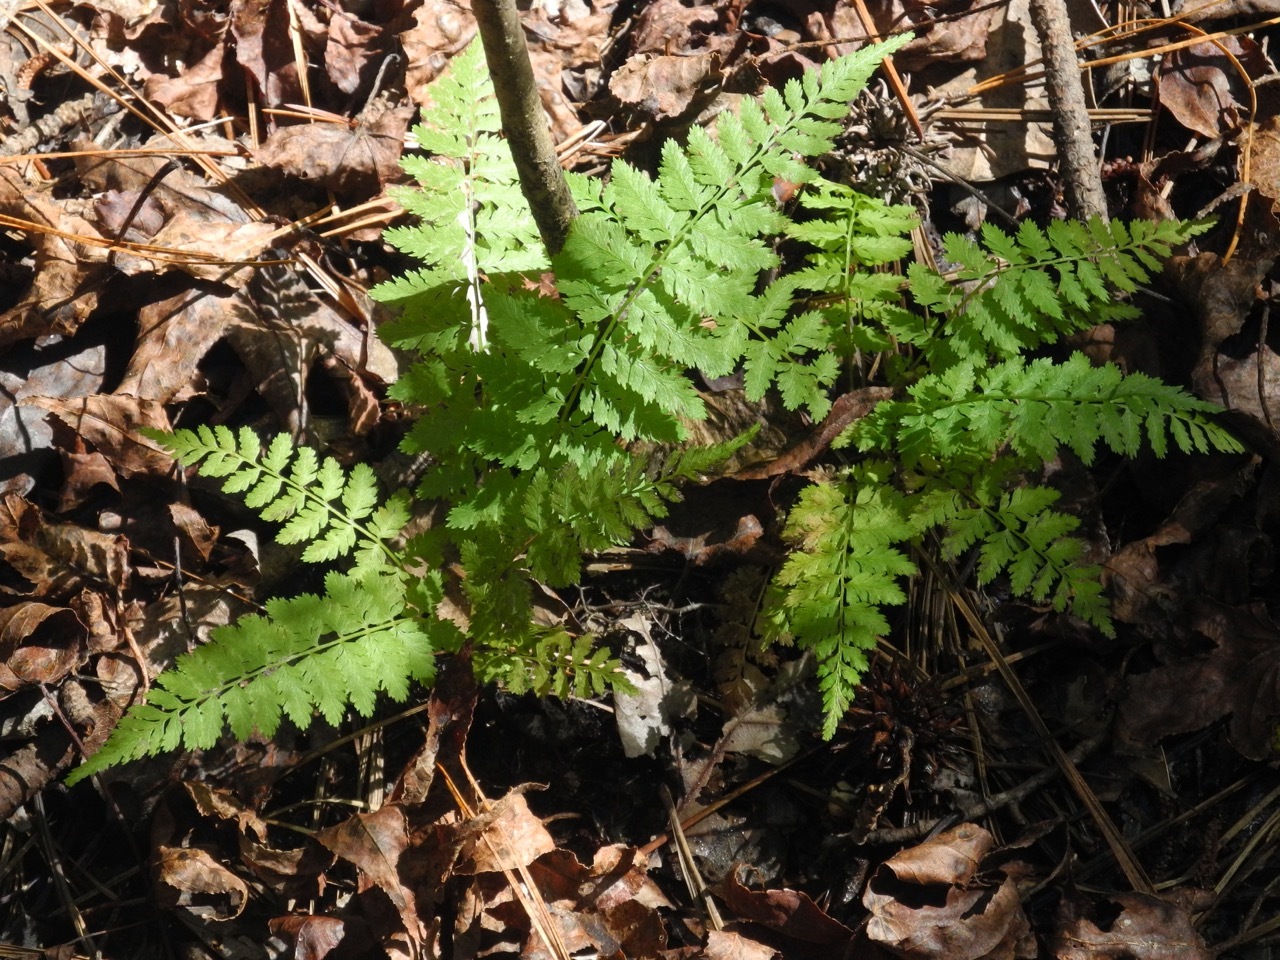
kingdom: Plantae
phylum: Tracheophyta
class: Polypodiopsida
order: Polypodiales
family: Athyriaceae
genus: Athyrium
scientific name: Athyrium asplenioides
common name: Southern lady fern
